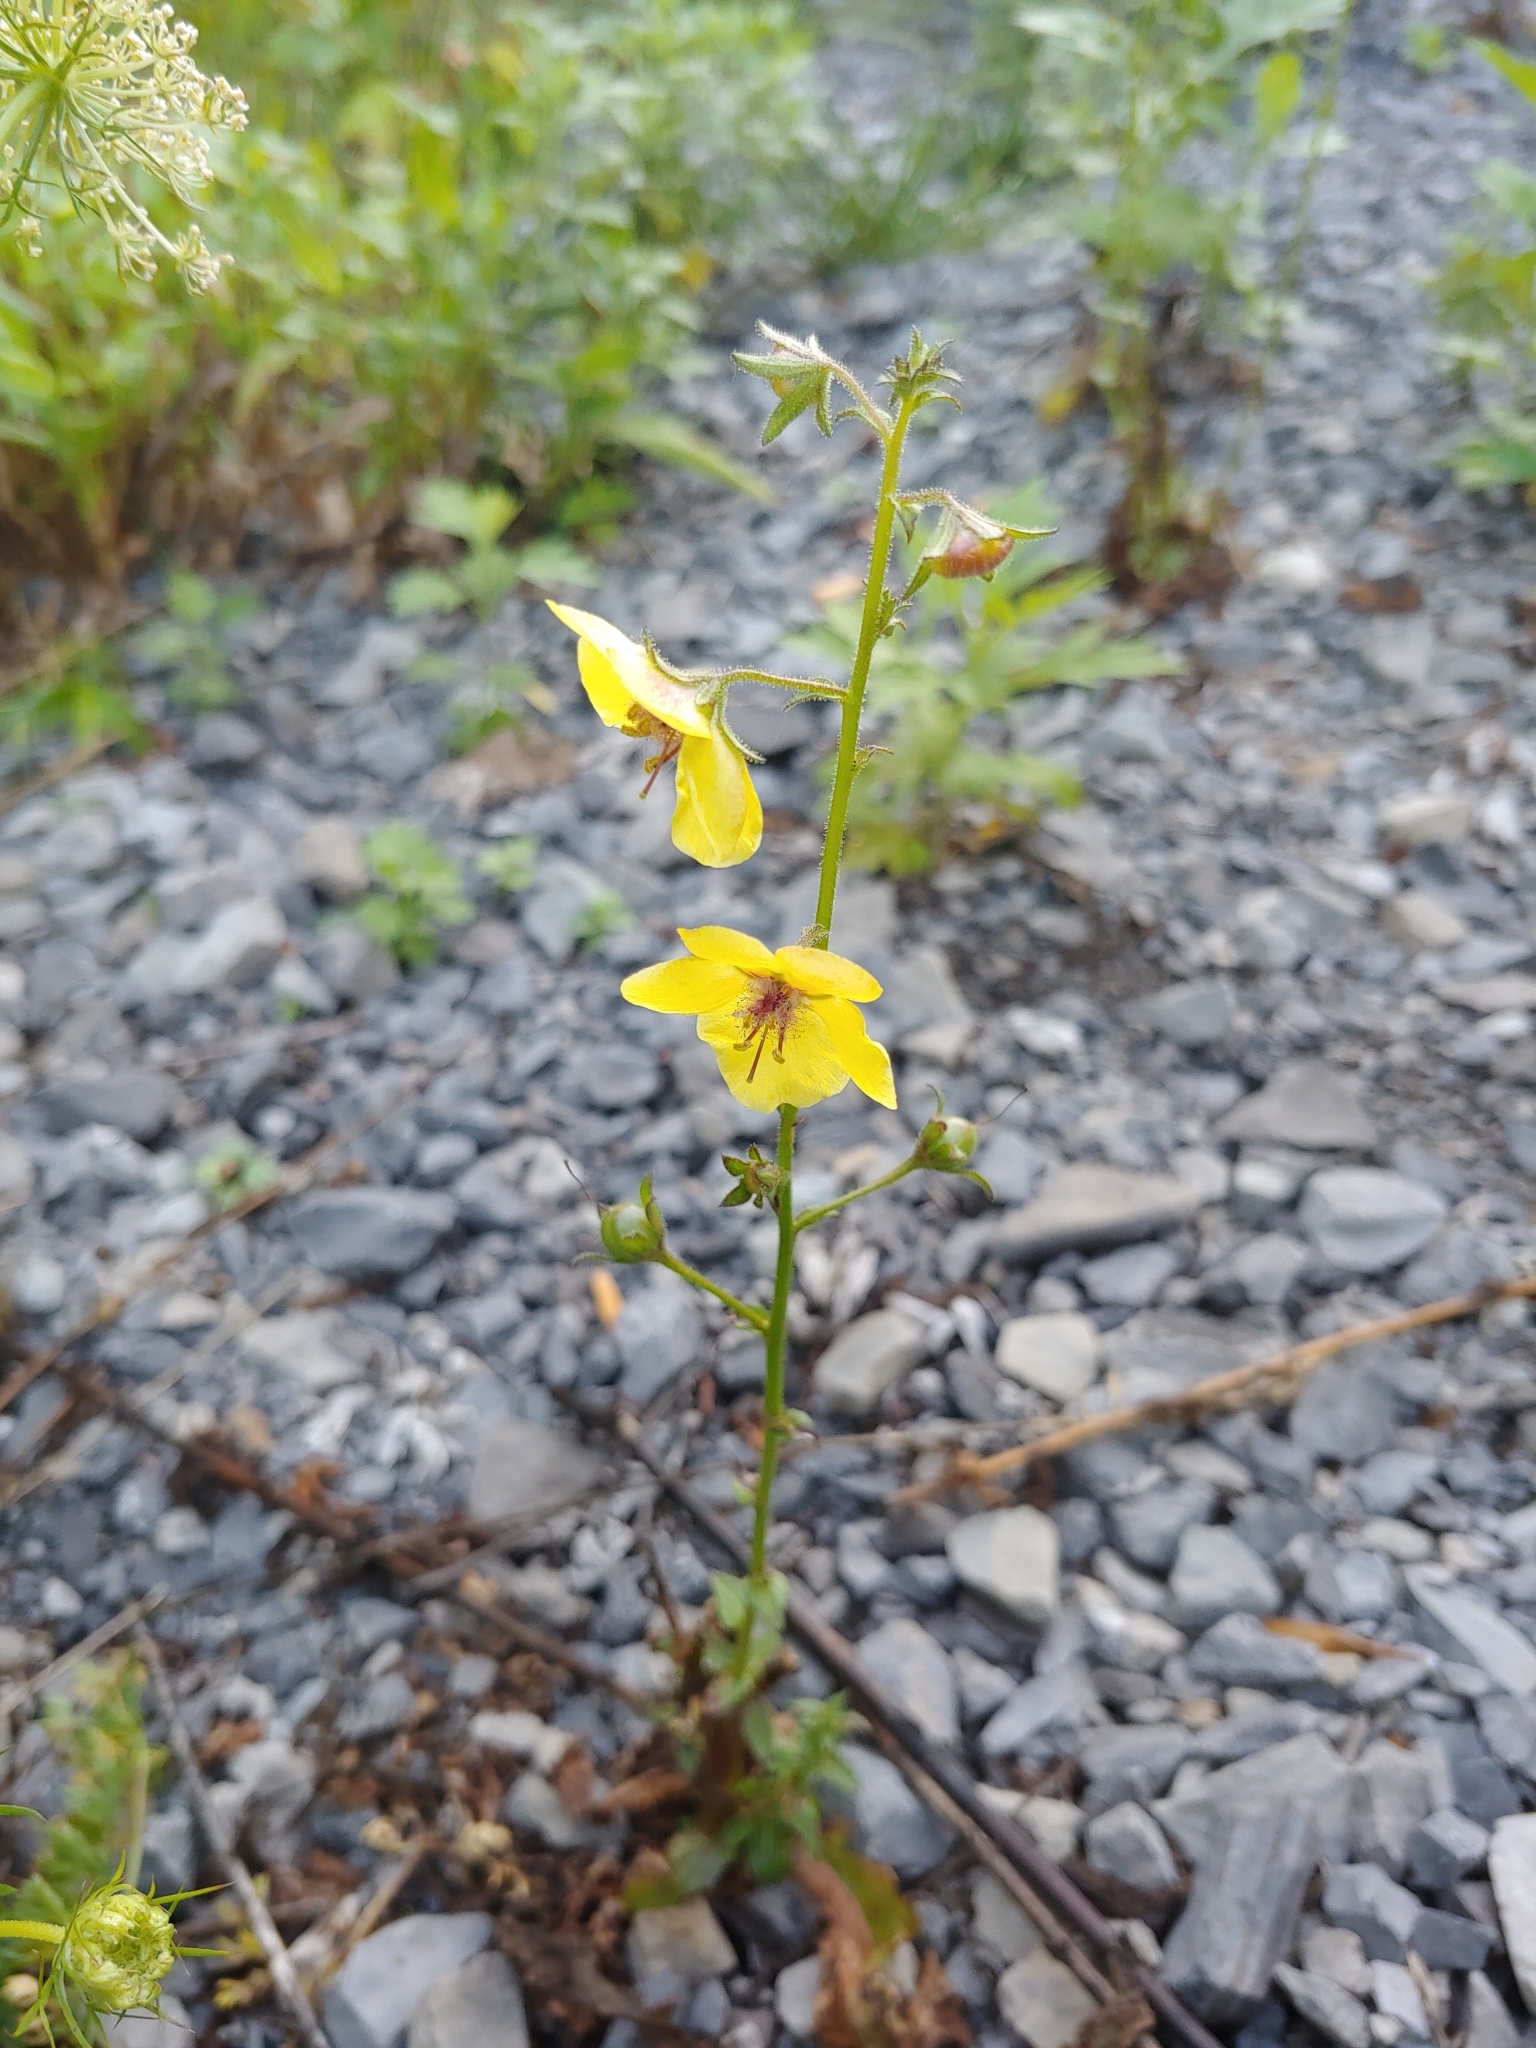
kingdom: Plantae
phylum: Tracheophyta
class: Magnoliopsida
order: Lamiales
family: Scrophulariaceae
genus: Verbascum
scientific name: Verbascum blattaria
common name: Moth mullein
